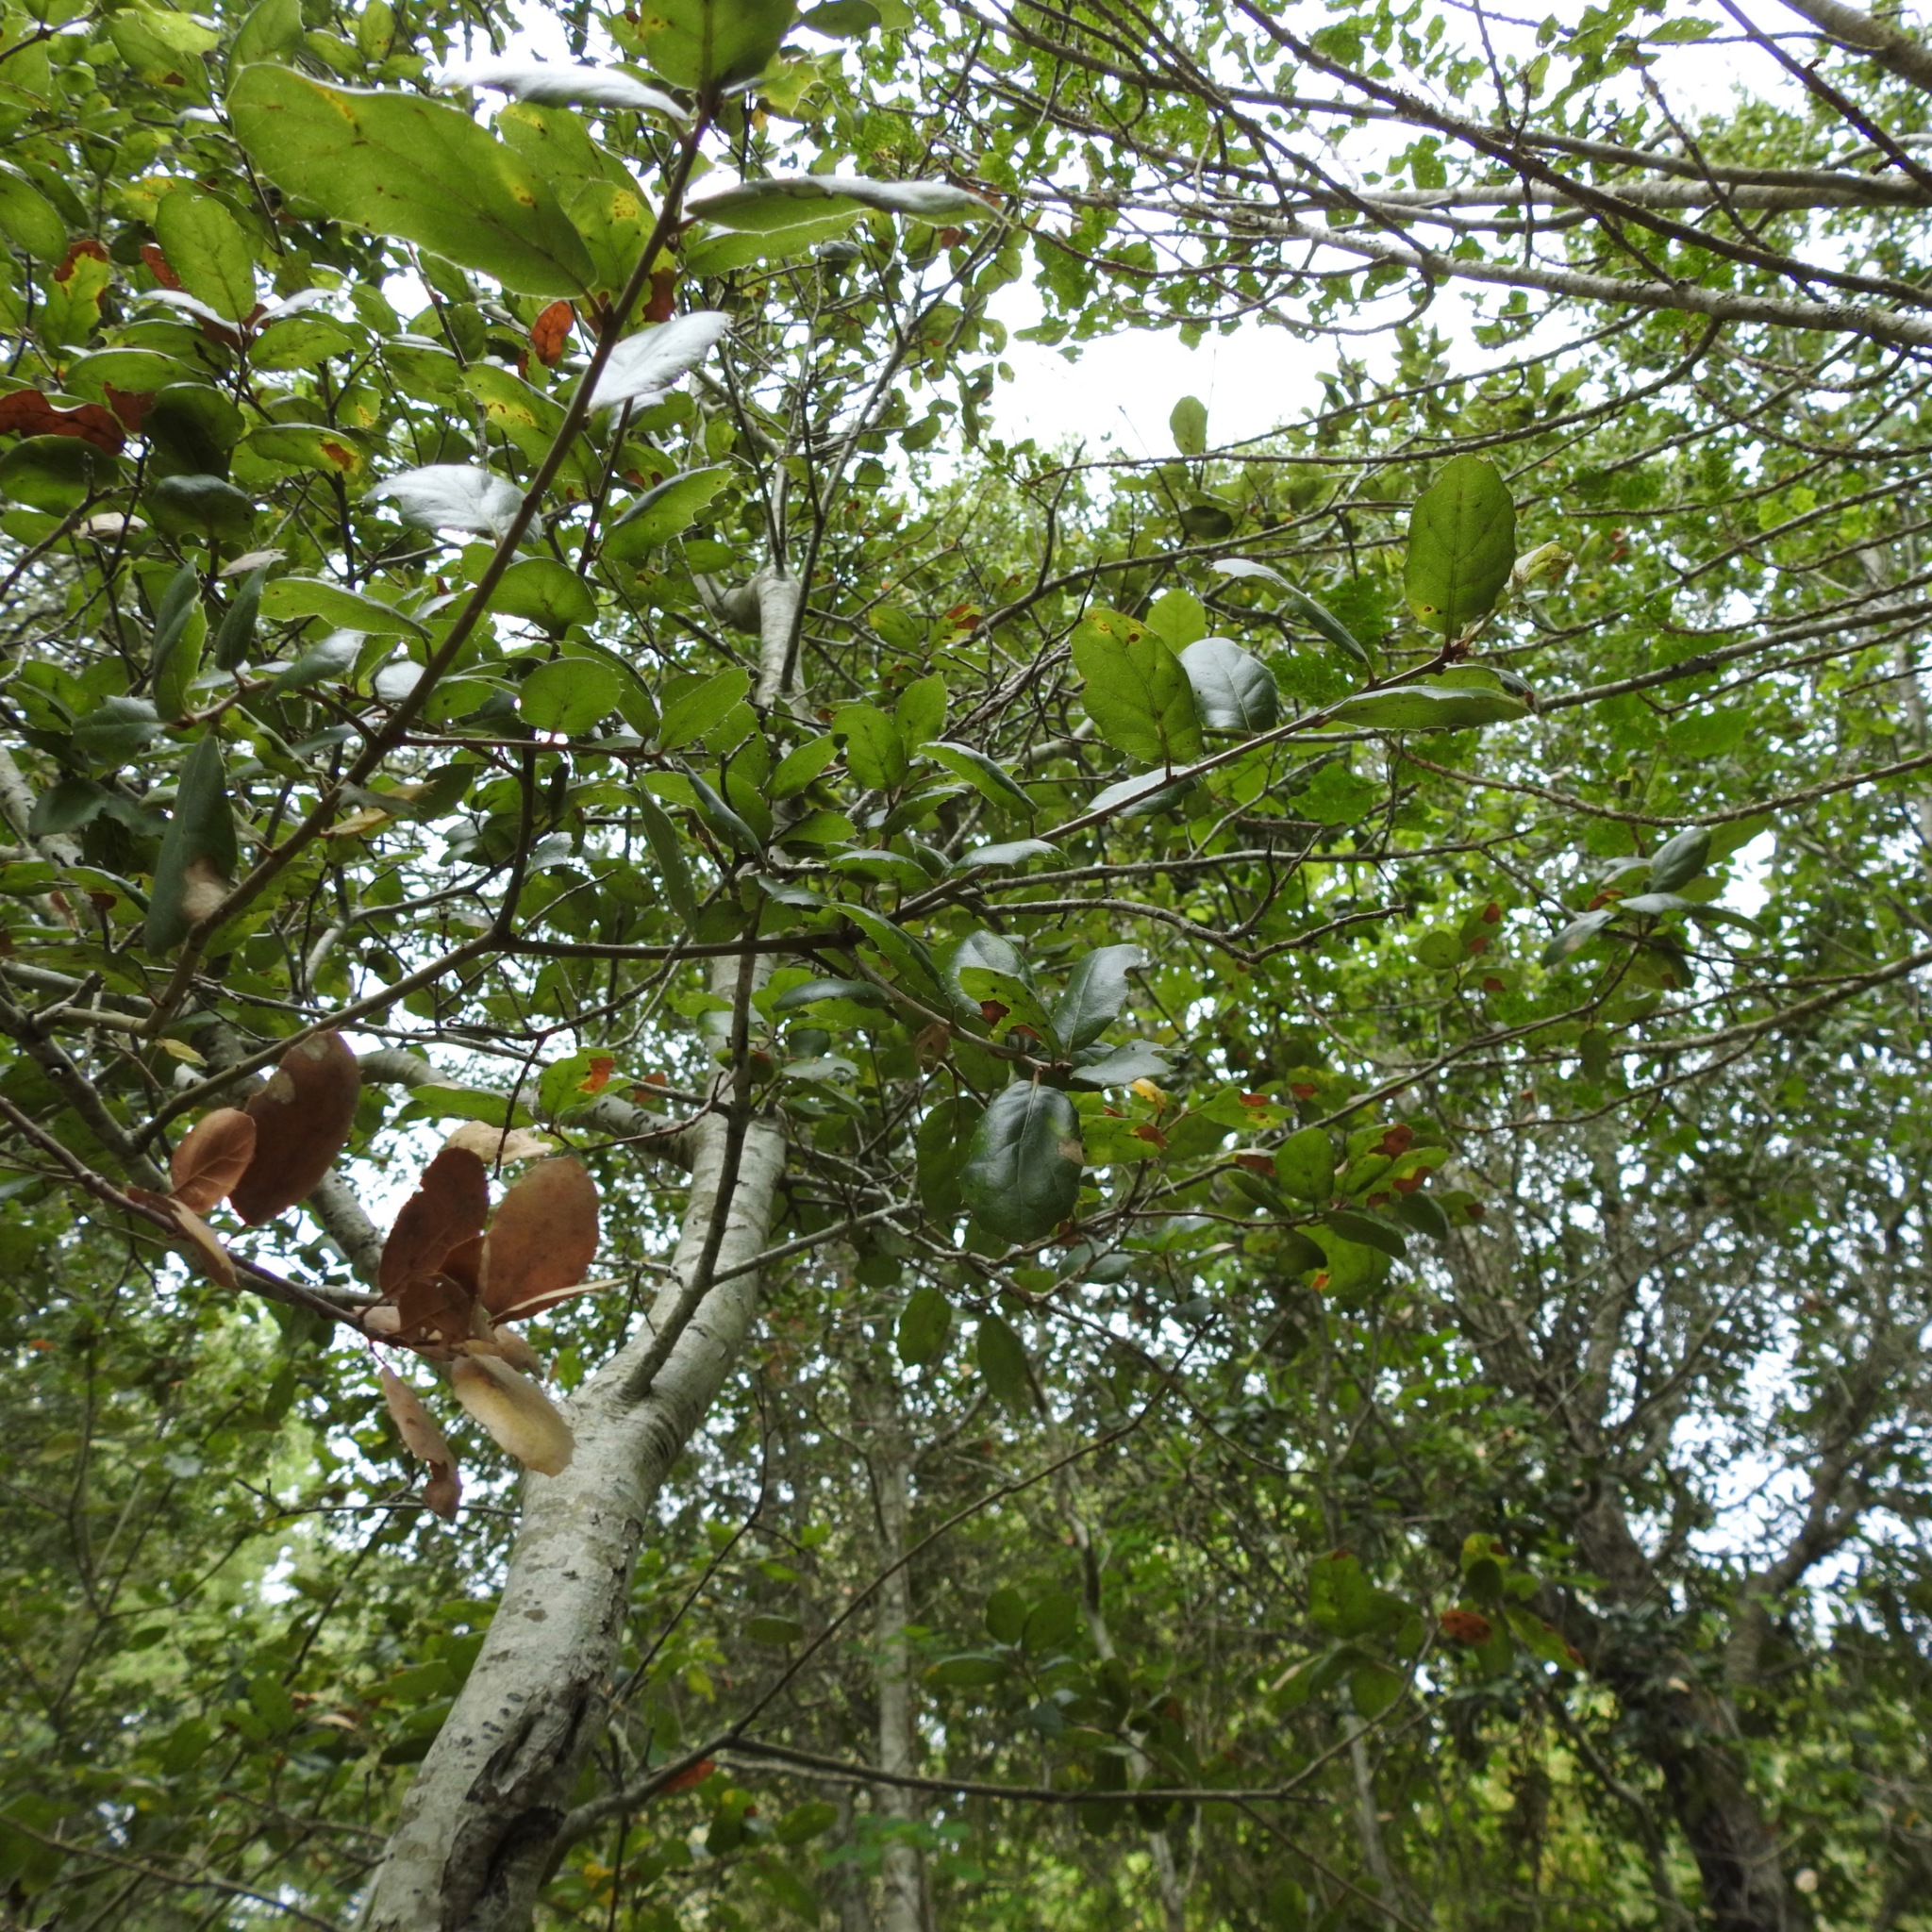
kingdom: Plantae
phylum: Tracheophyta
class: Magnoliopsida
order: Fagales
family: Fagaceae
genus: Quercus
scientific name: Quercus agrifolia
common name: California live oak
